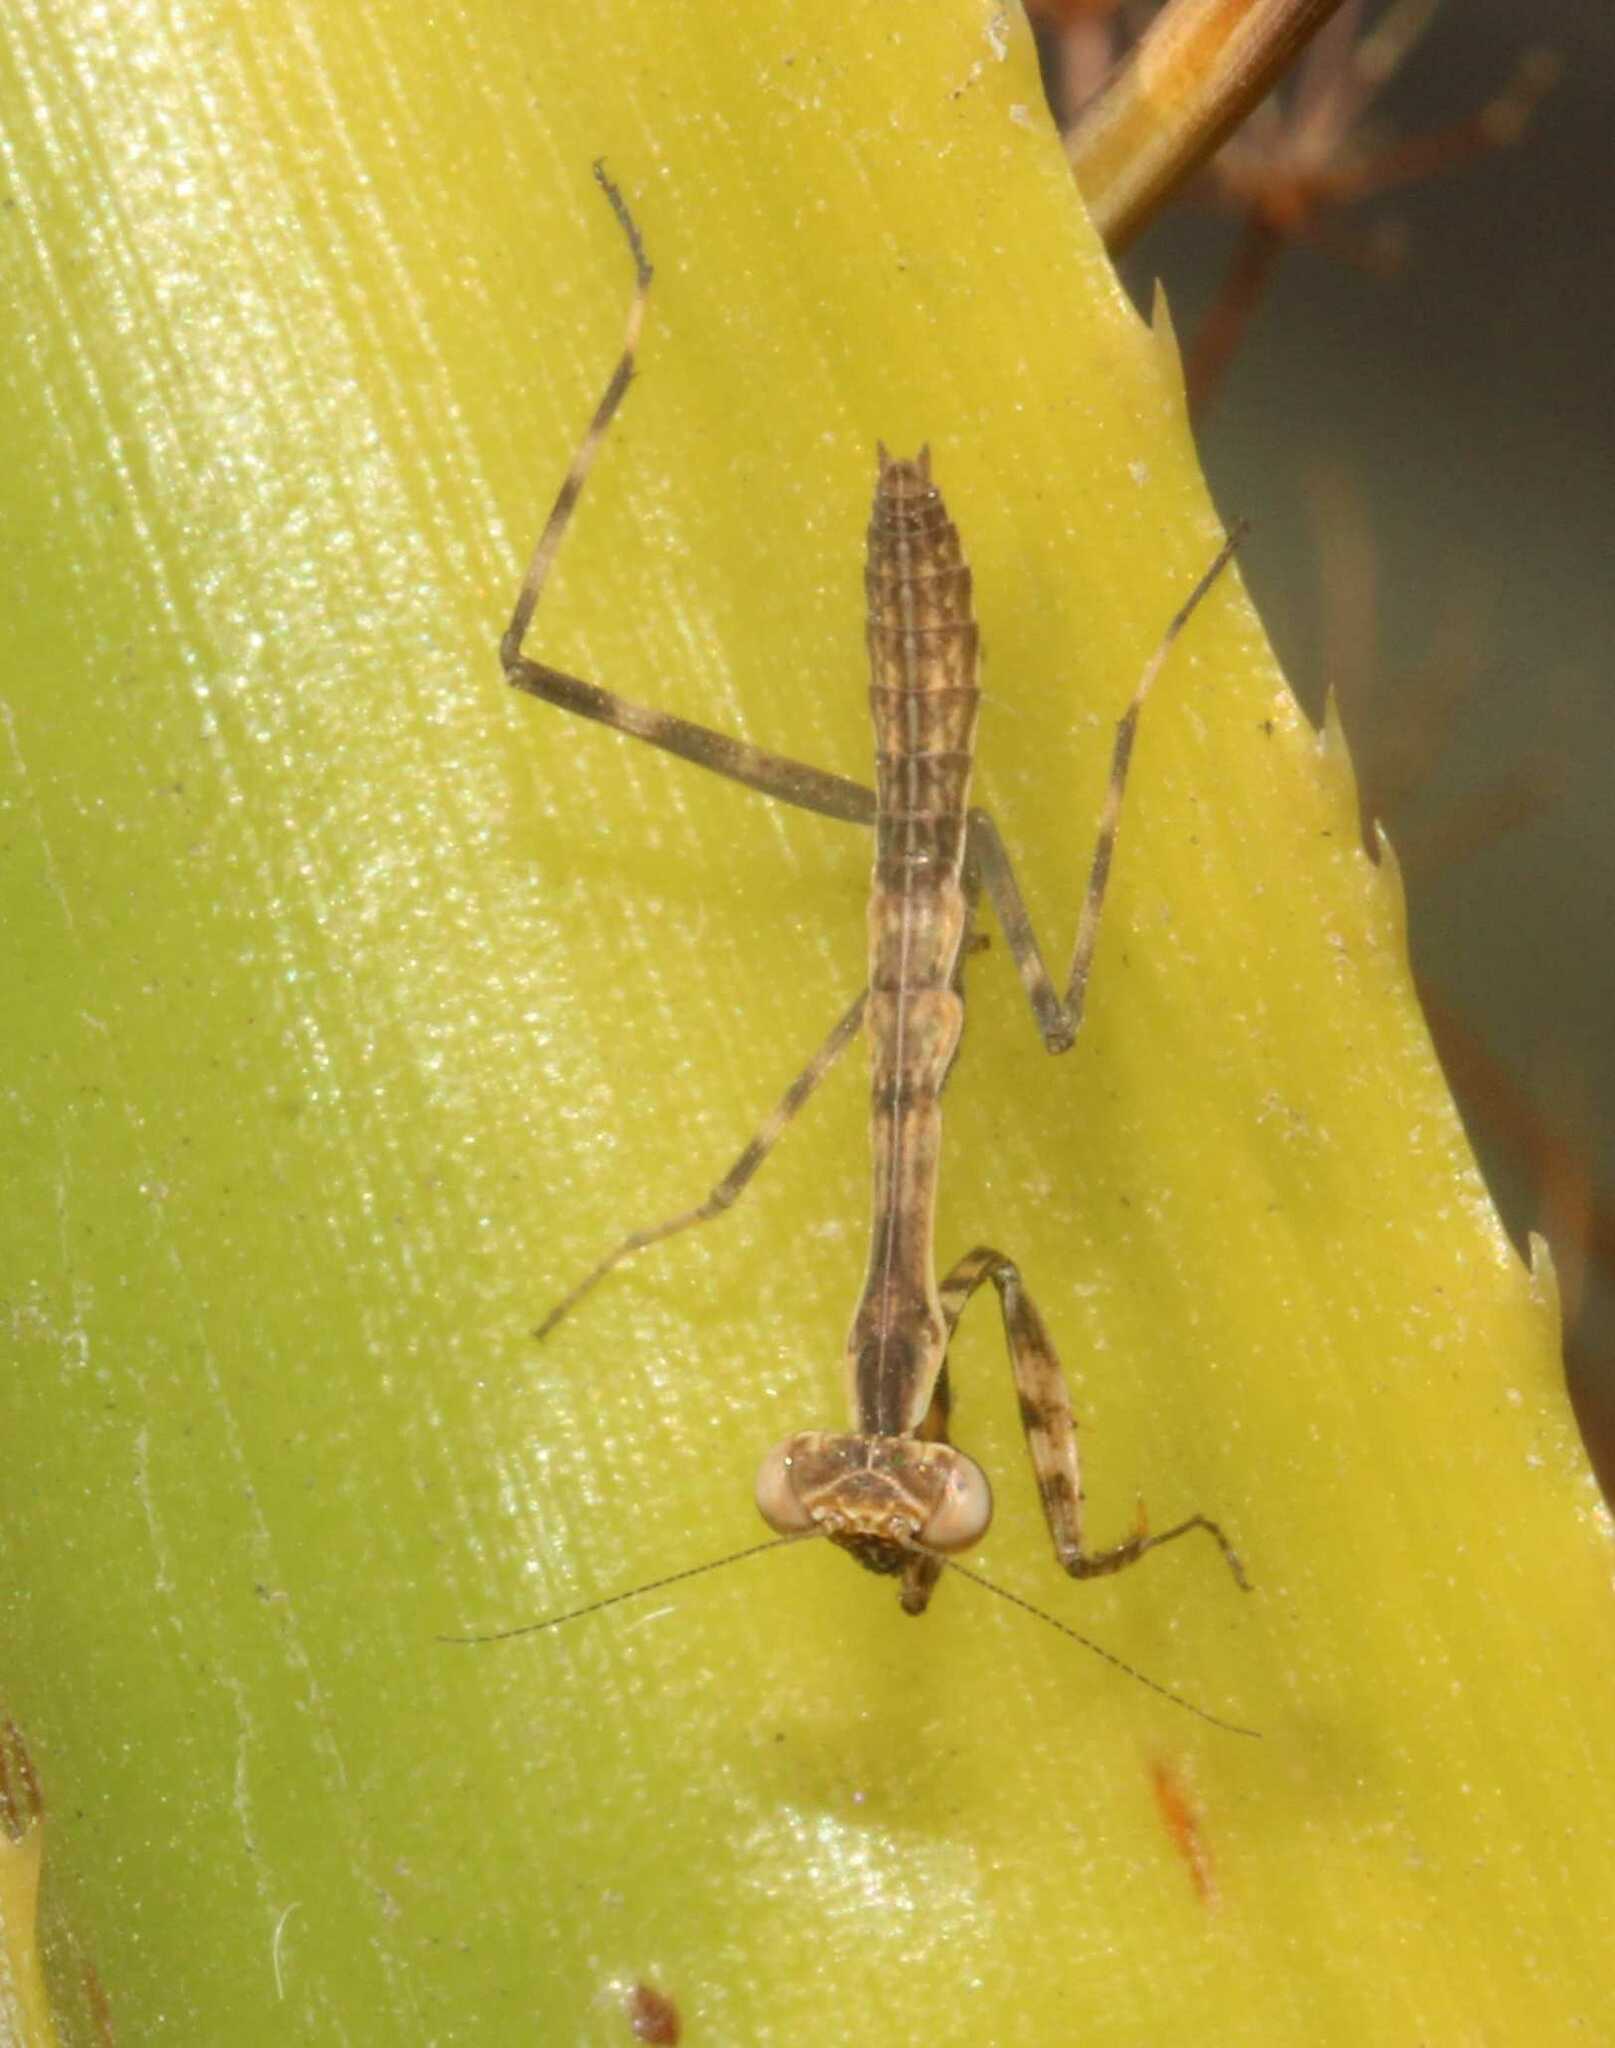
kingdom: Animalia
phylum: Arthropoda
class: Insecta
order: Mantodea
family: Mantidae
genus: Stagmomantis
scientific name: Stagmomantis limbata
